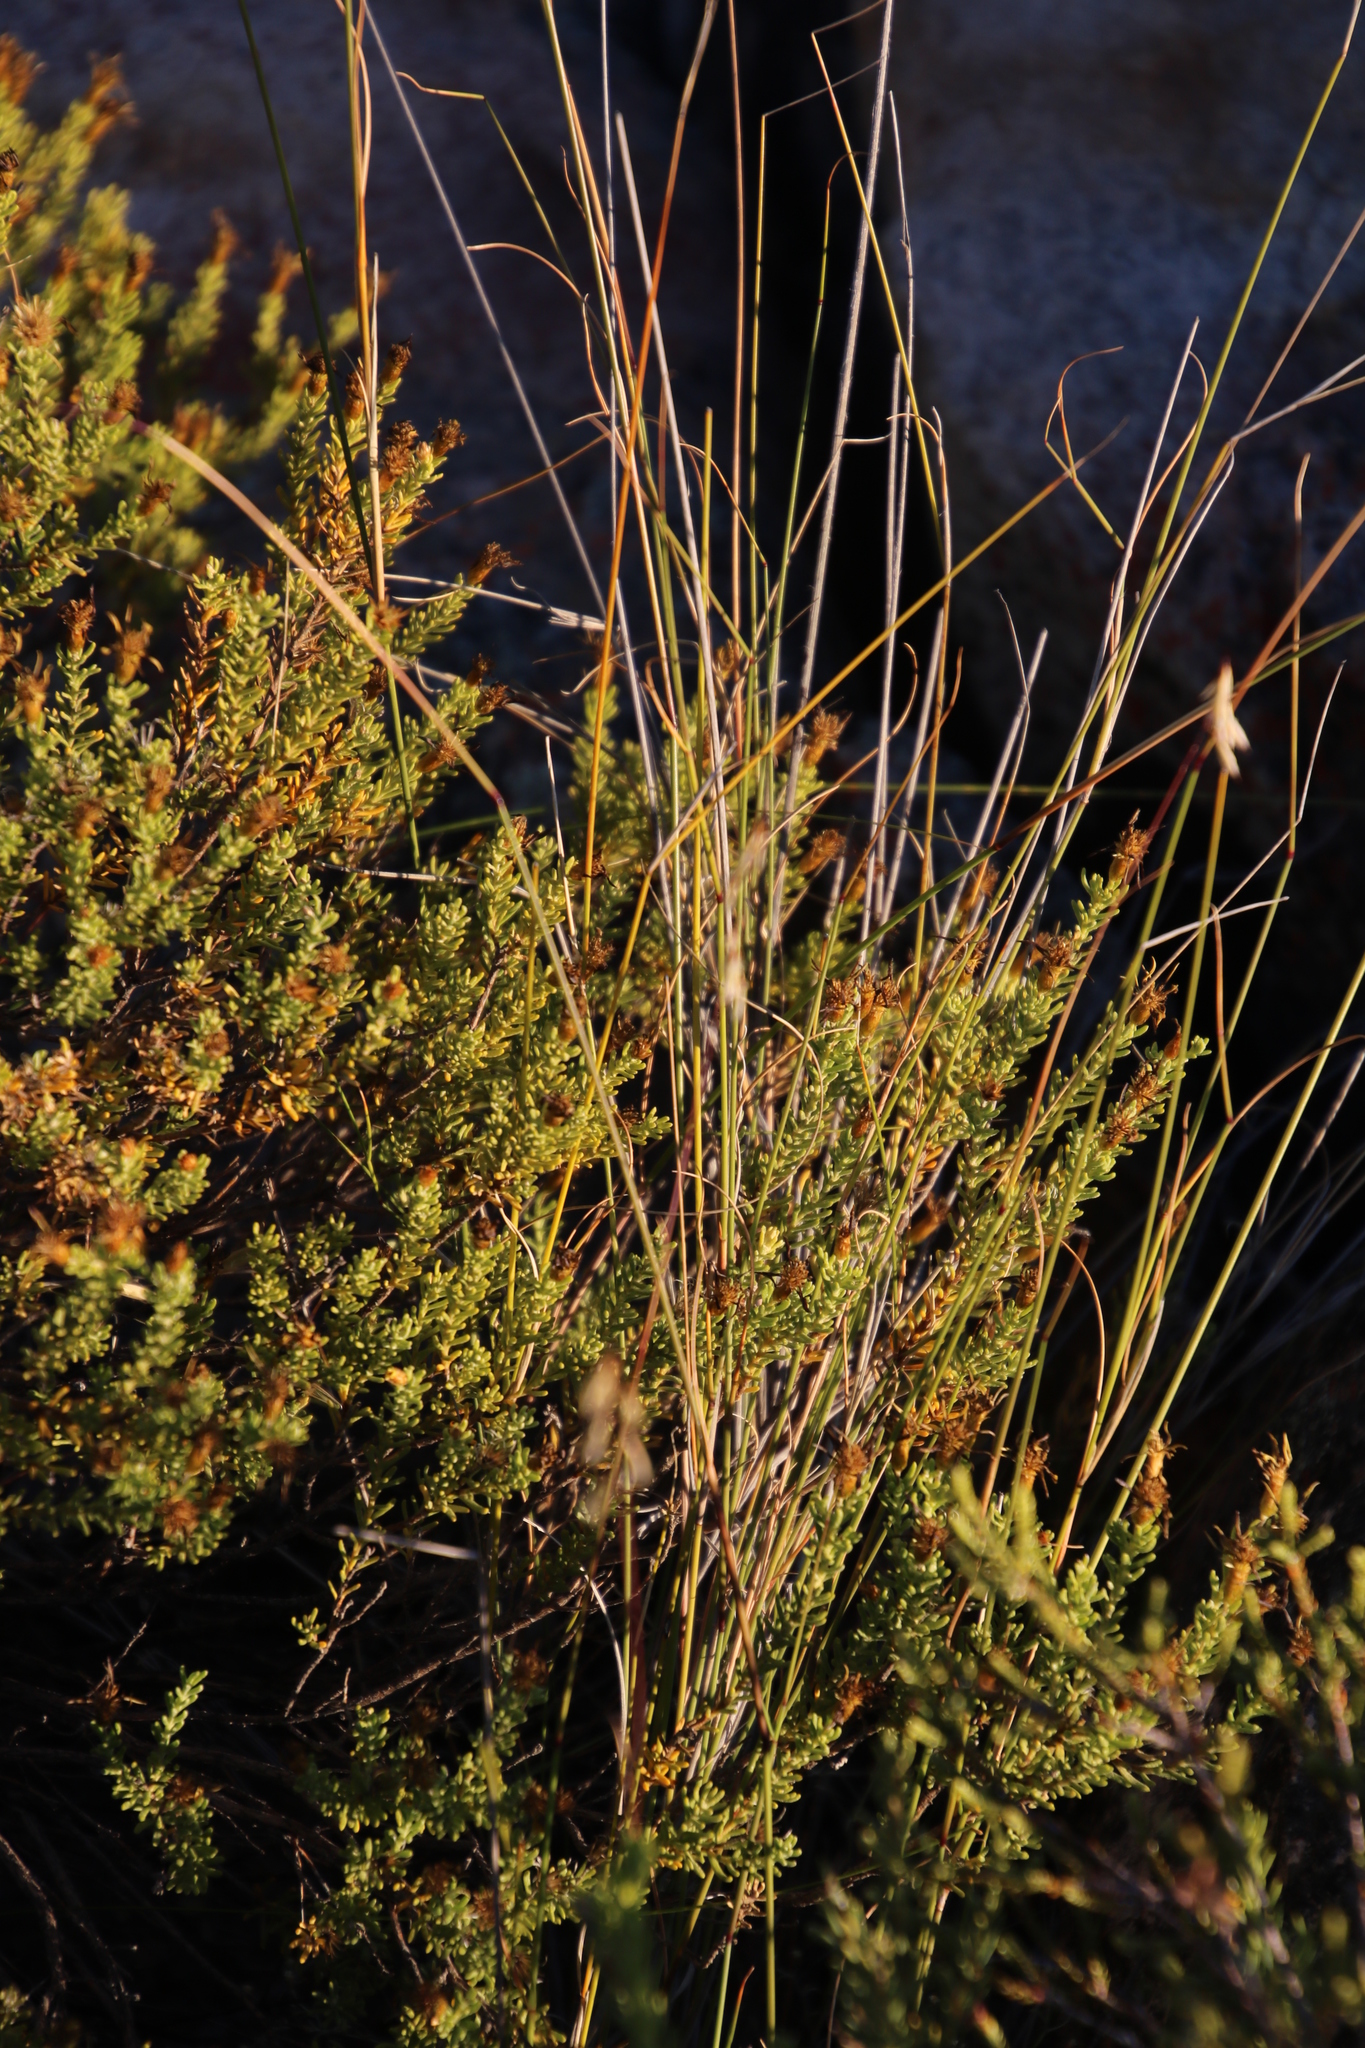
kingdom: Plantae
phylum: Tracheophyta
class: Liliopsida
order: Poales
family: Poaceae
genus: Ehrharta
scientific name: Ehrharta thunbergii
